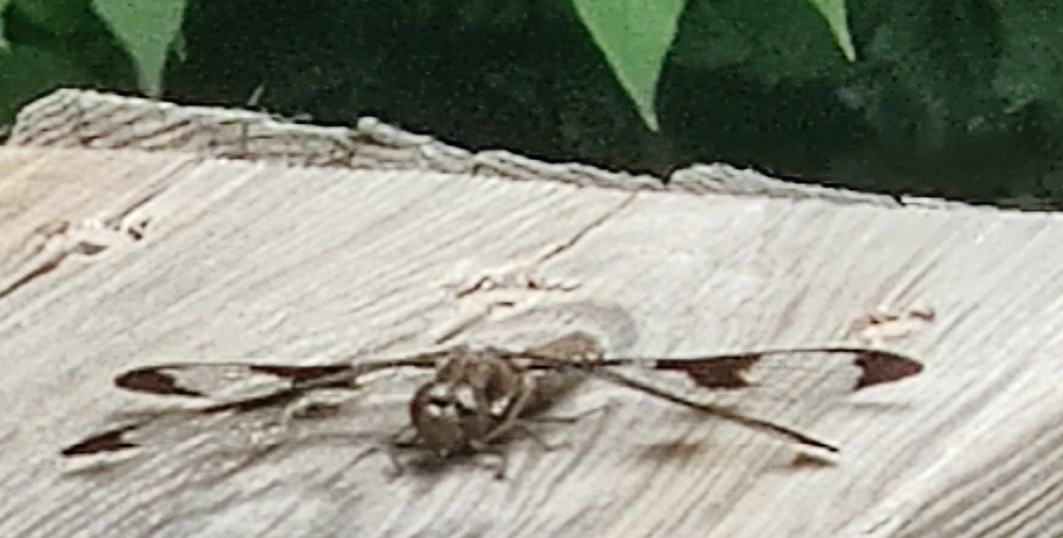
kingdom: Animalia
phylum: Arthropoda
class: Insecta
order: Odonata
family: Libellulidae
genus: Plathemis
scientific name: Plathemis lydia
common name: Common whitetail
